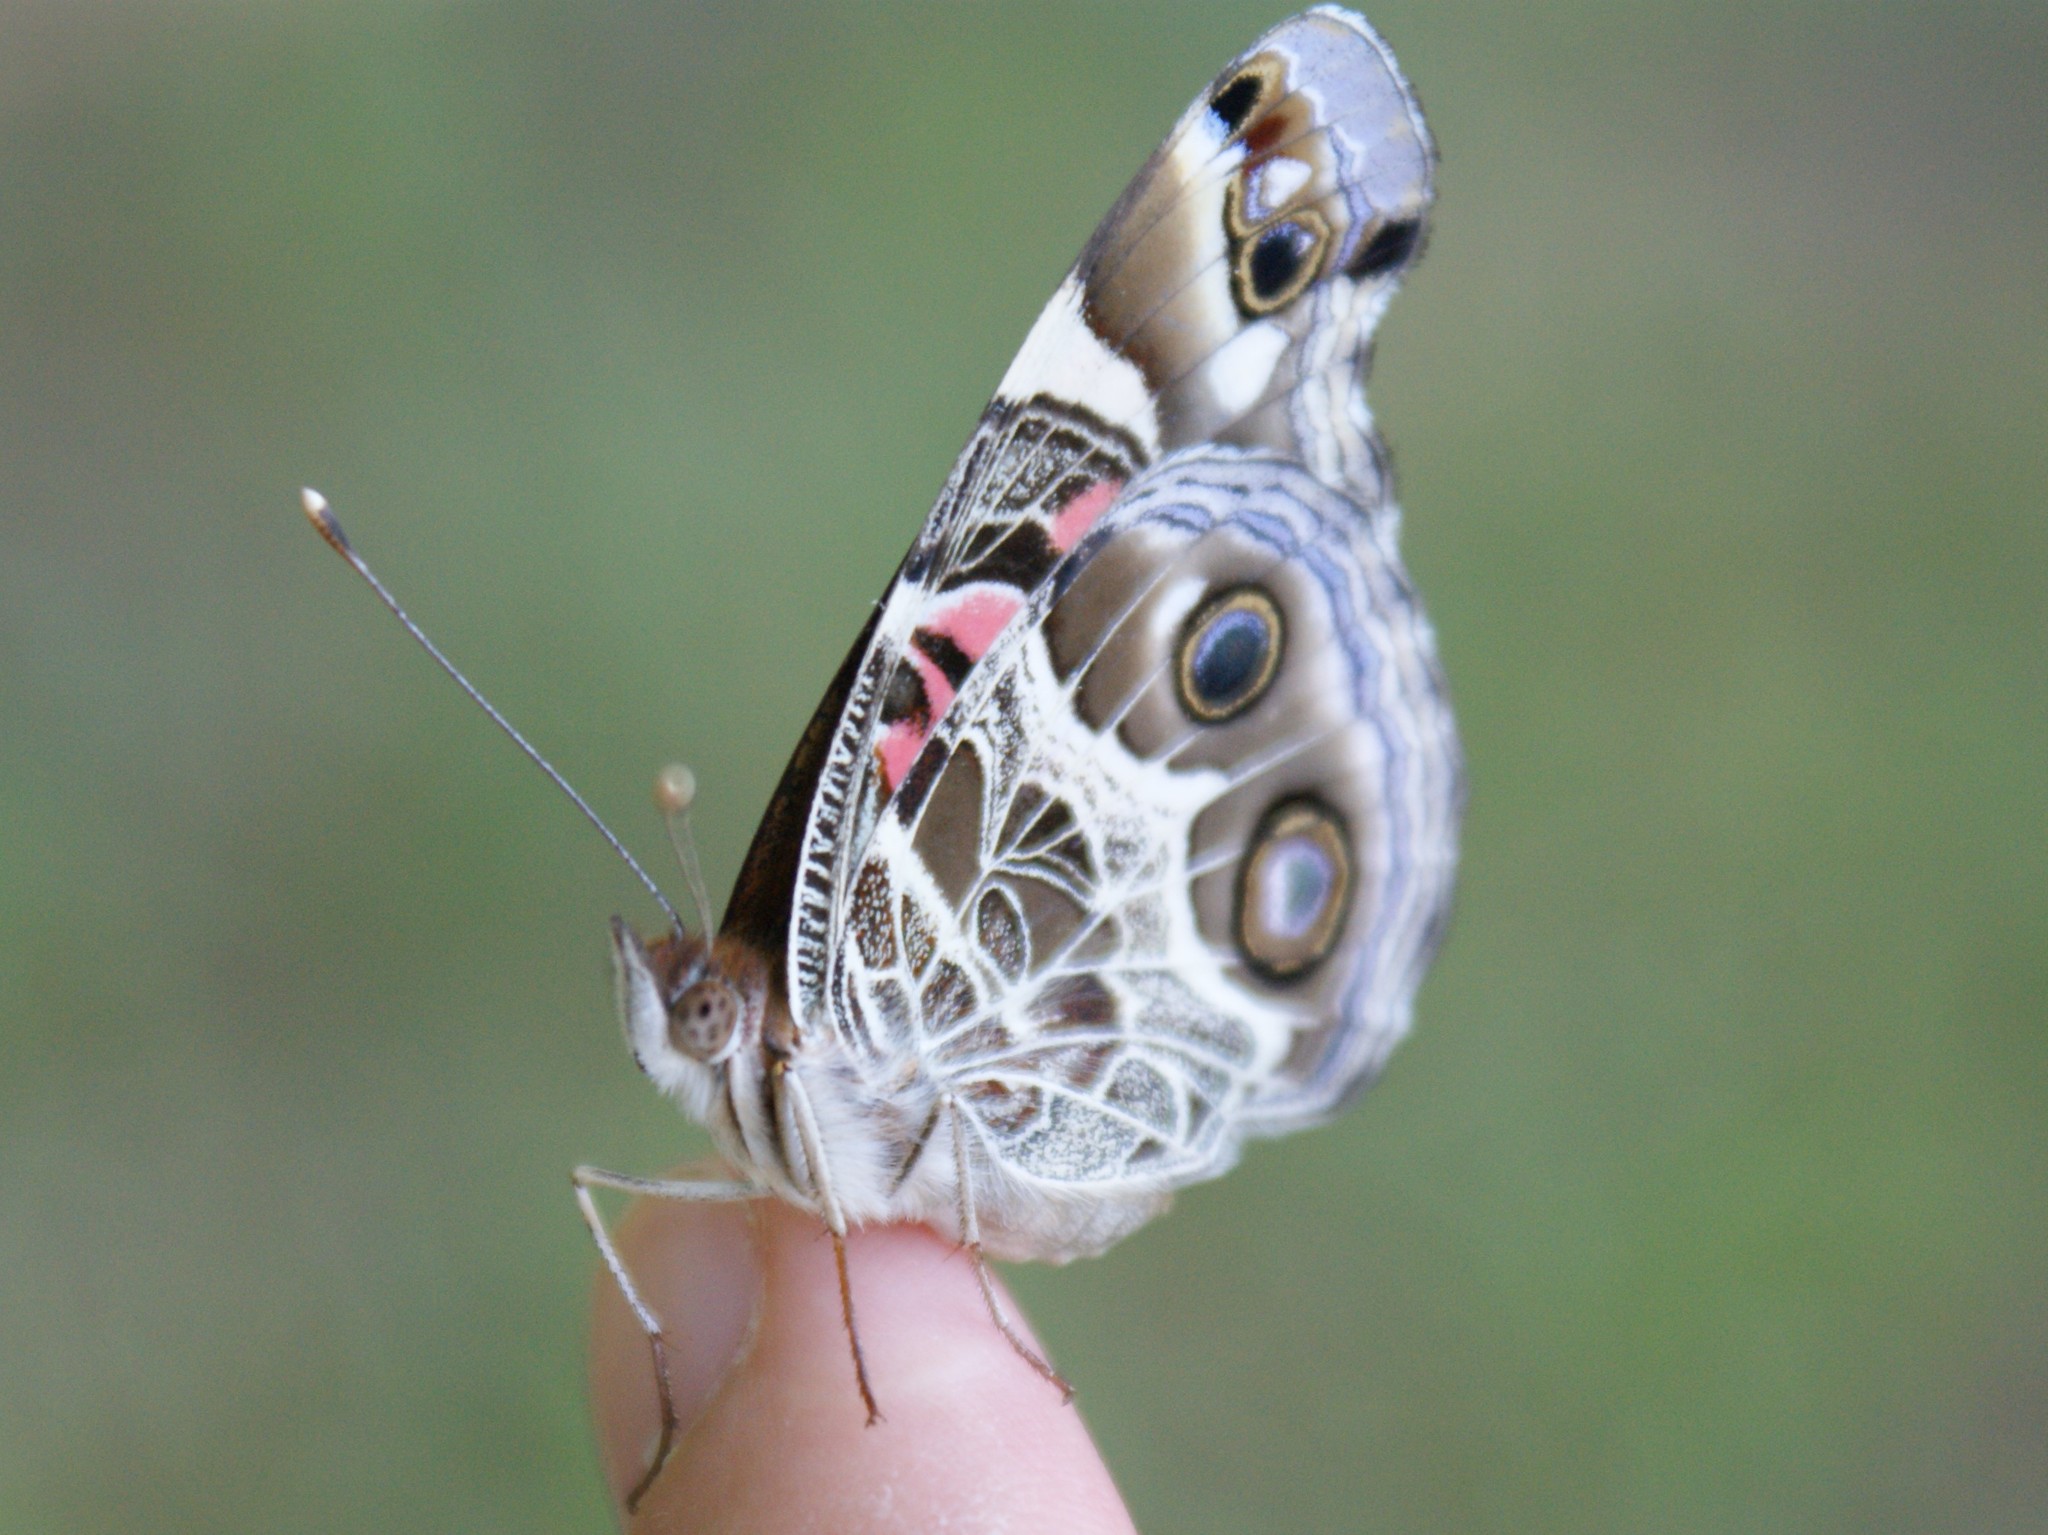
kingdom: Animalia
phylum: Arthropoda
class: Insecta
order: Lepidoptera
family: Nymphalidae
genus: Vanessa
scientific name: Vanessa virginiensis
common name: American lady
